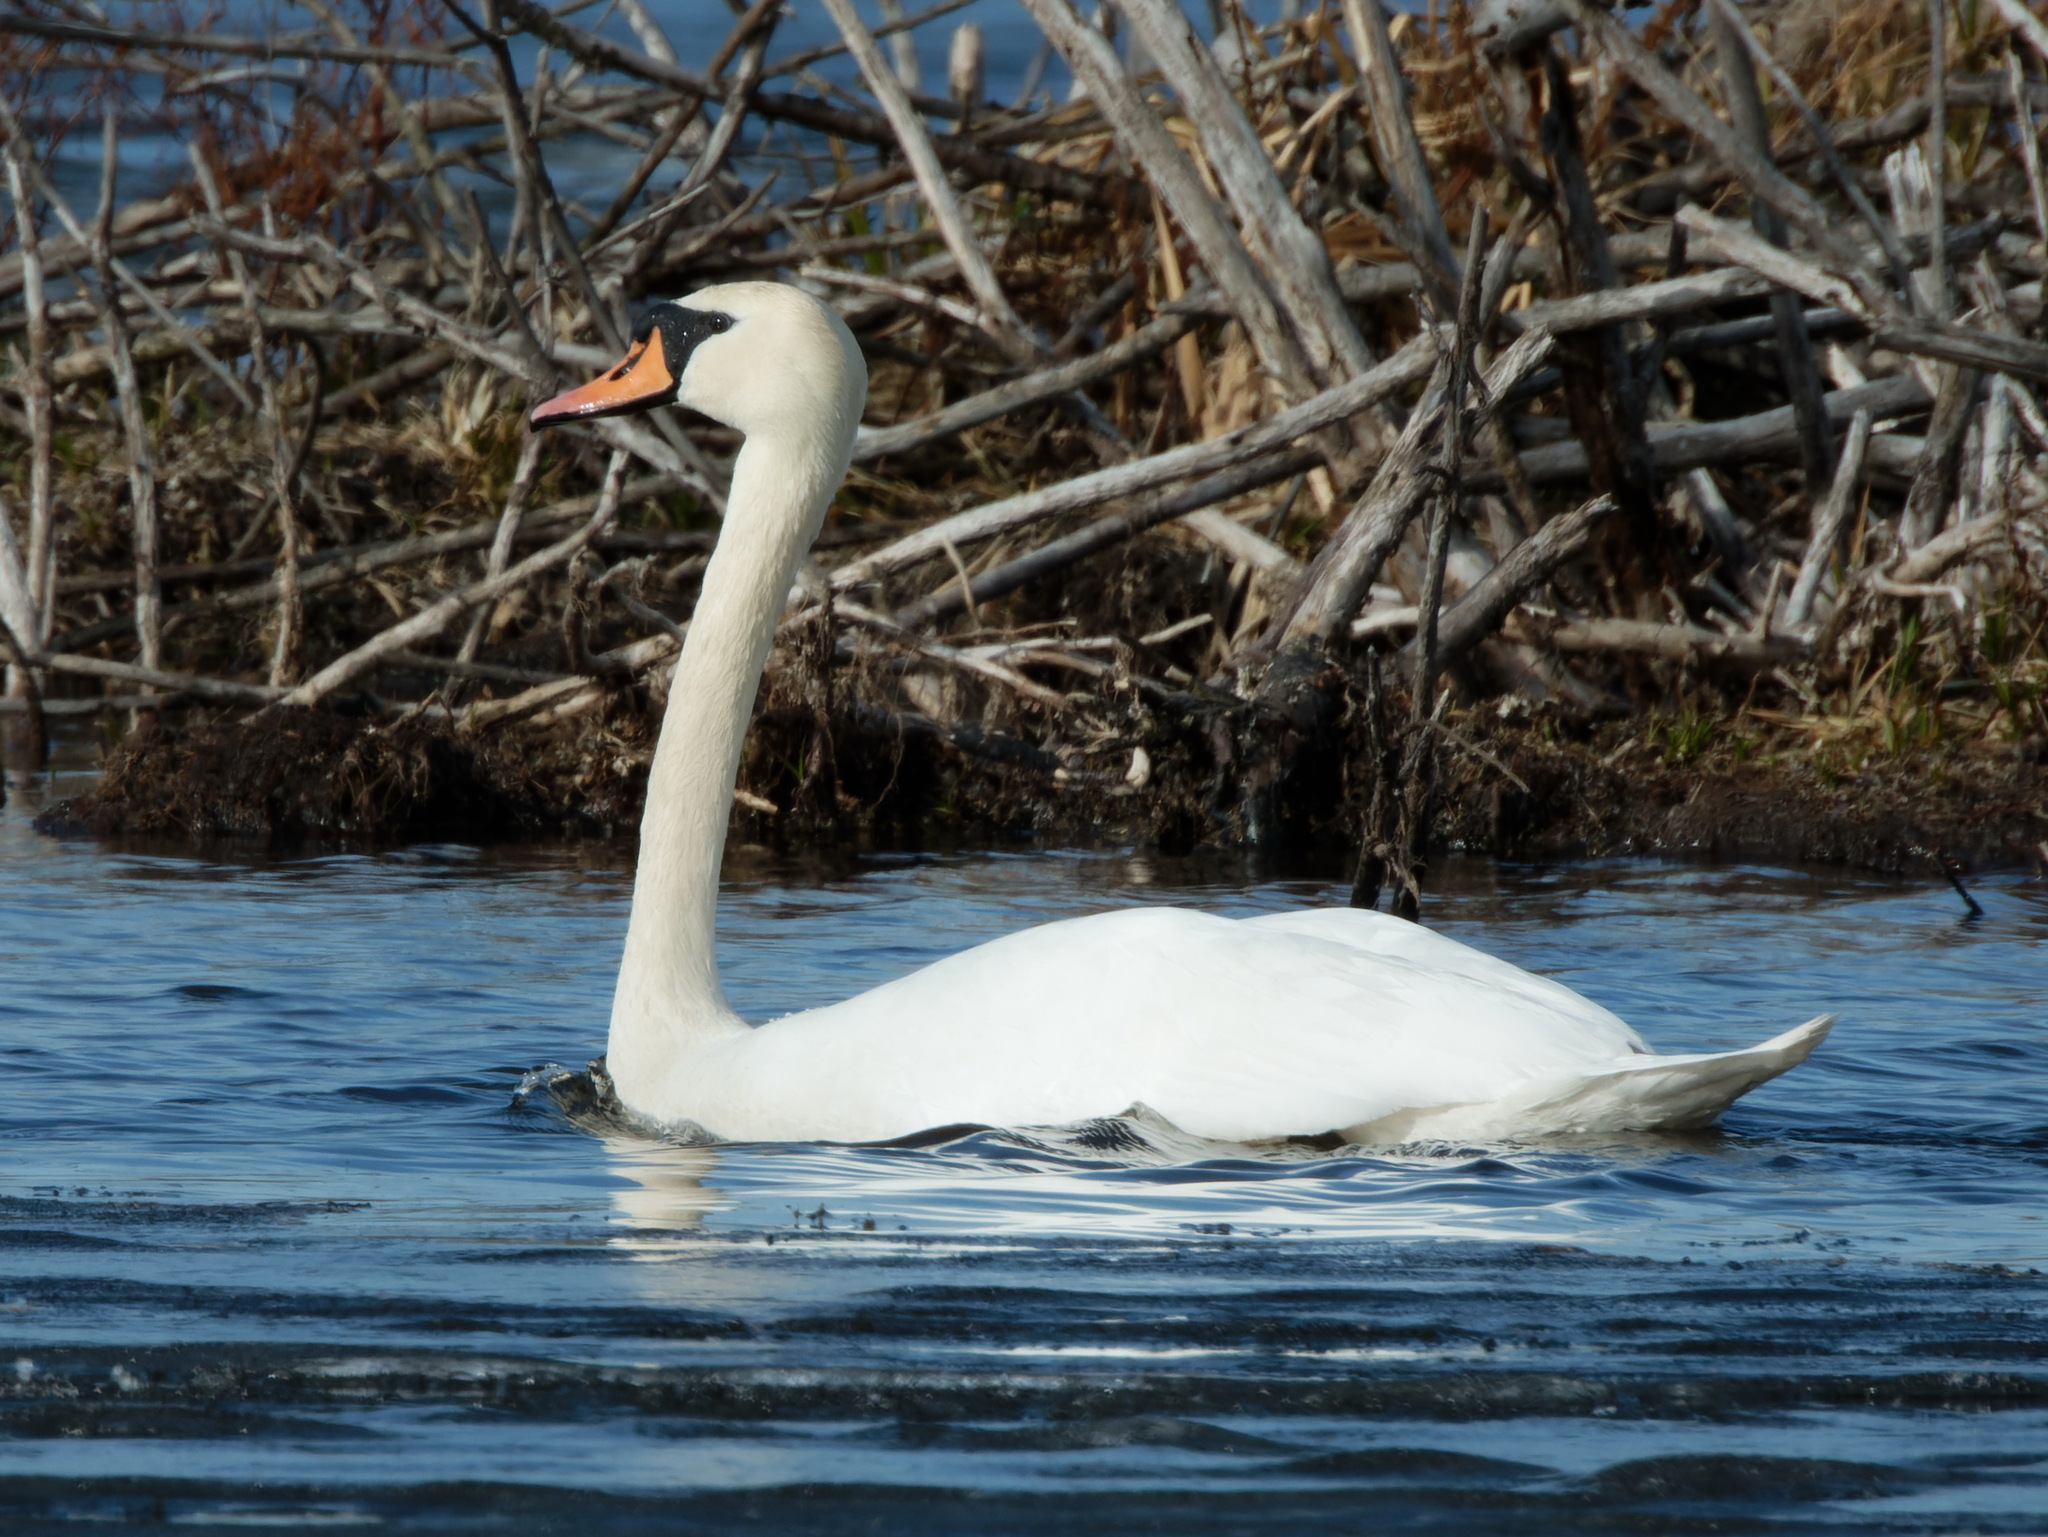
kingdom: Animalia
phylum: Chordata
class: Aves
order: Anseriformes
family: Anatidae
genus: Cygnus
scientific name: Cygnus olor
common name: Mute swan
